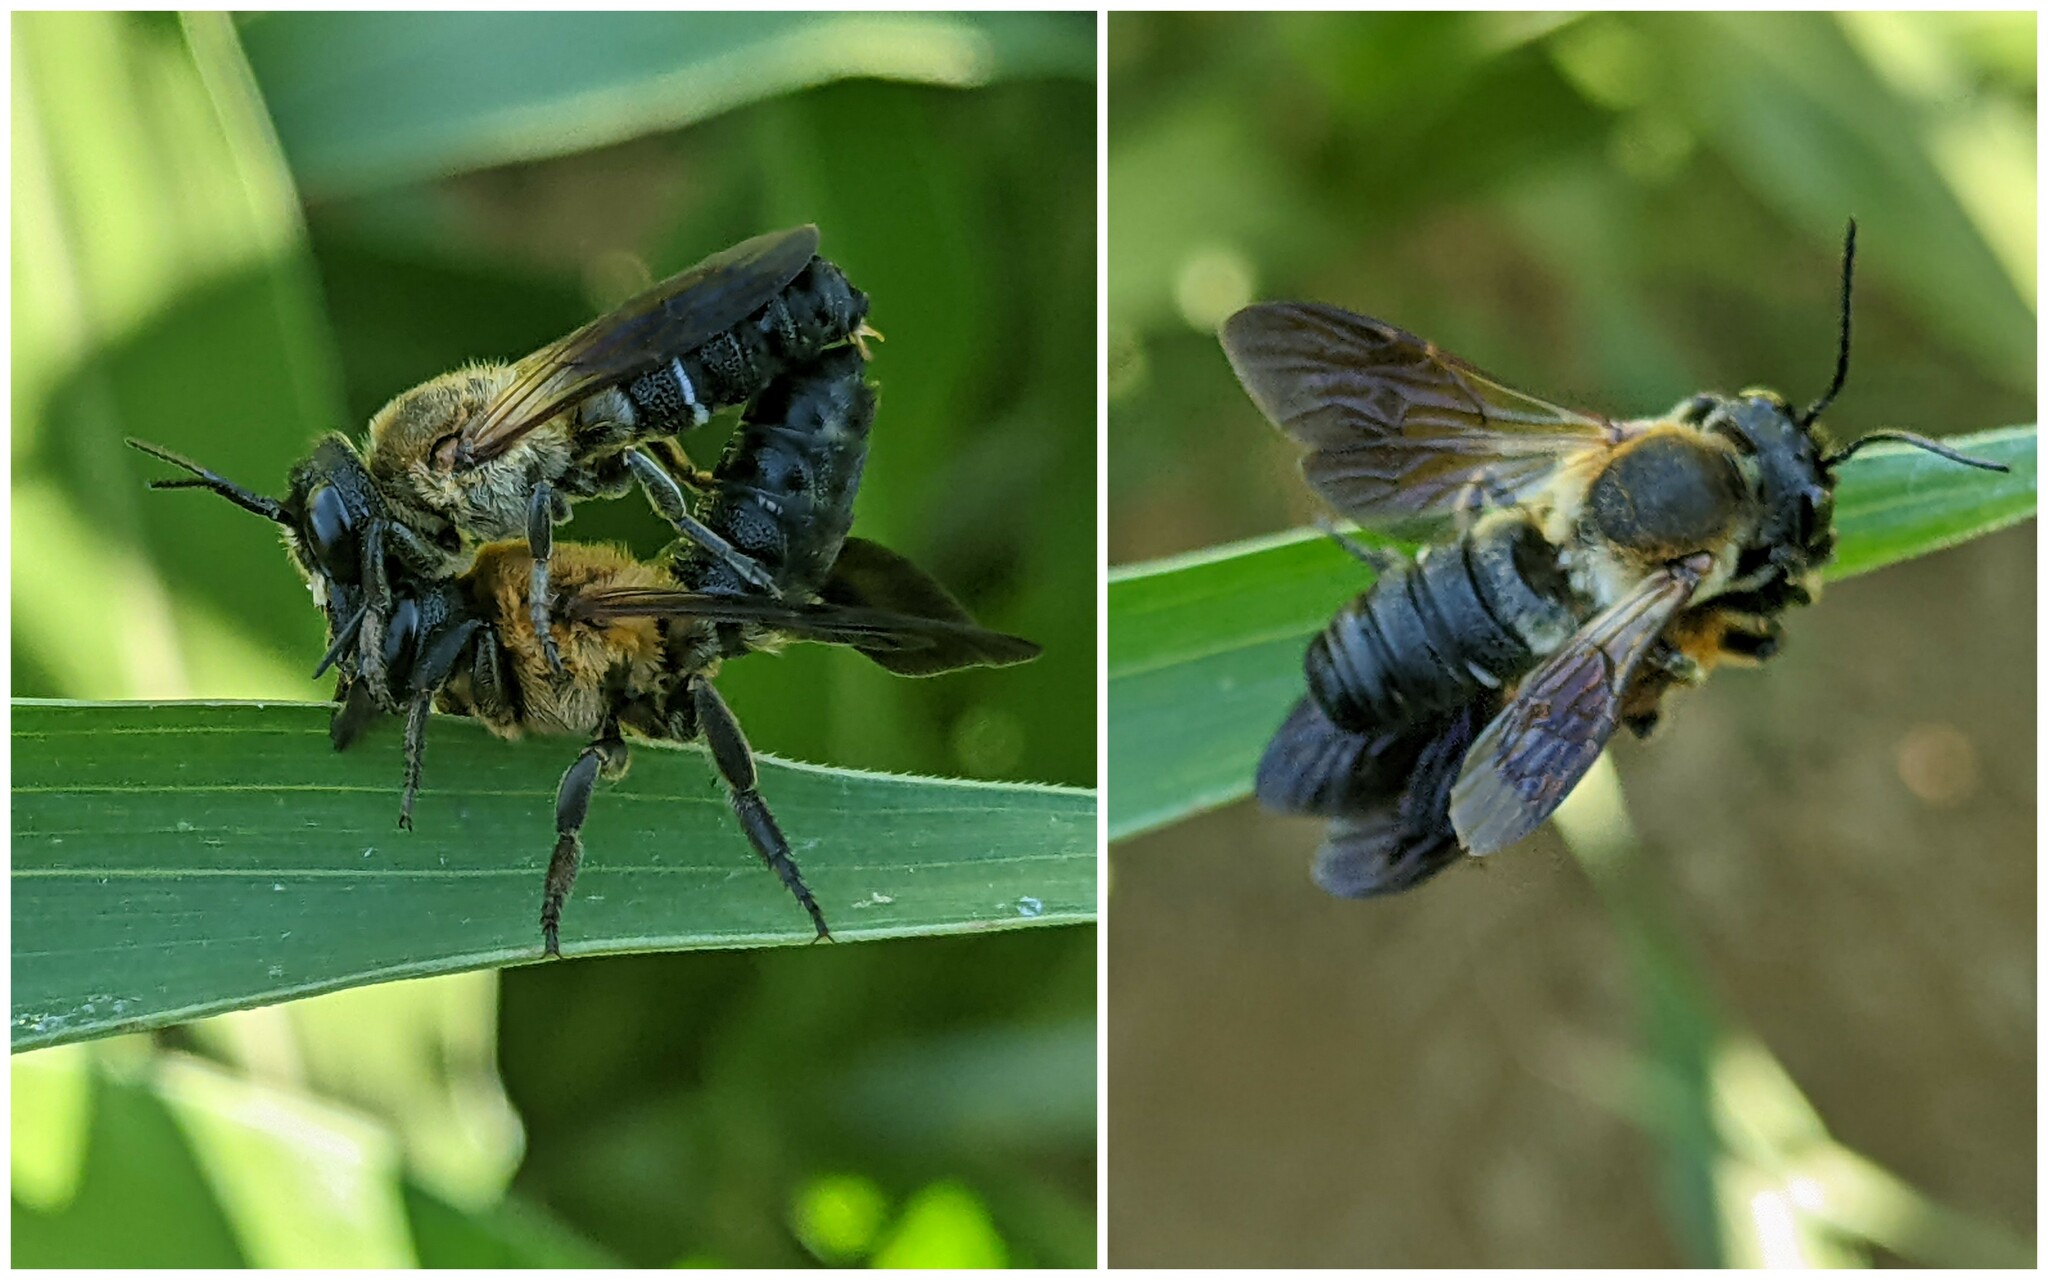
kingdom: Animalia
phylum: Arthropoda
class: Insecta
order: Hymenoptera
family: Megachilidae
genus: Megachile
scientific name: Megachile sculpturalis
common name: Sculptured resin bee
